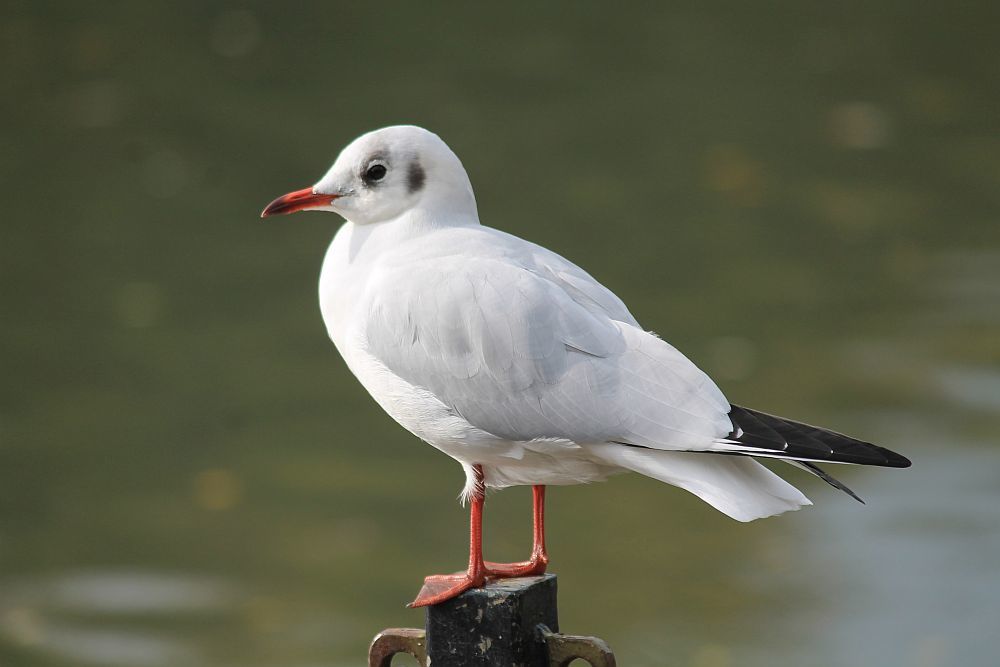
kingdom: Animalia
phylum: Chordata
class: Aves
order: Charadriiformes
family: Laridae
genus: Chroicocephalus
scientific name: Chroicocephalus ridibundus
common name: Black-headed gull
